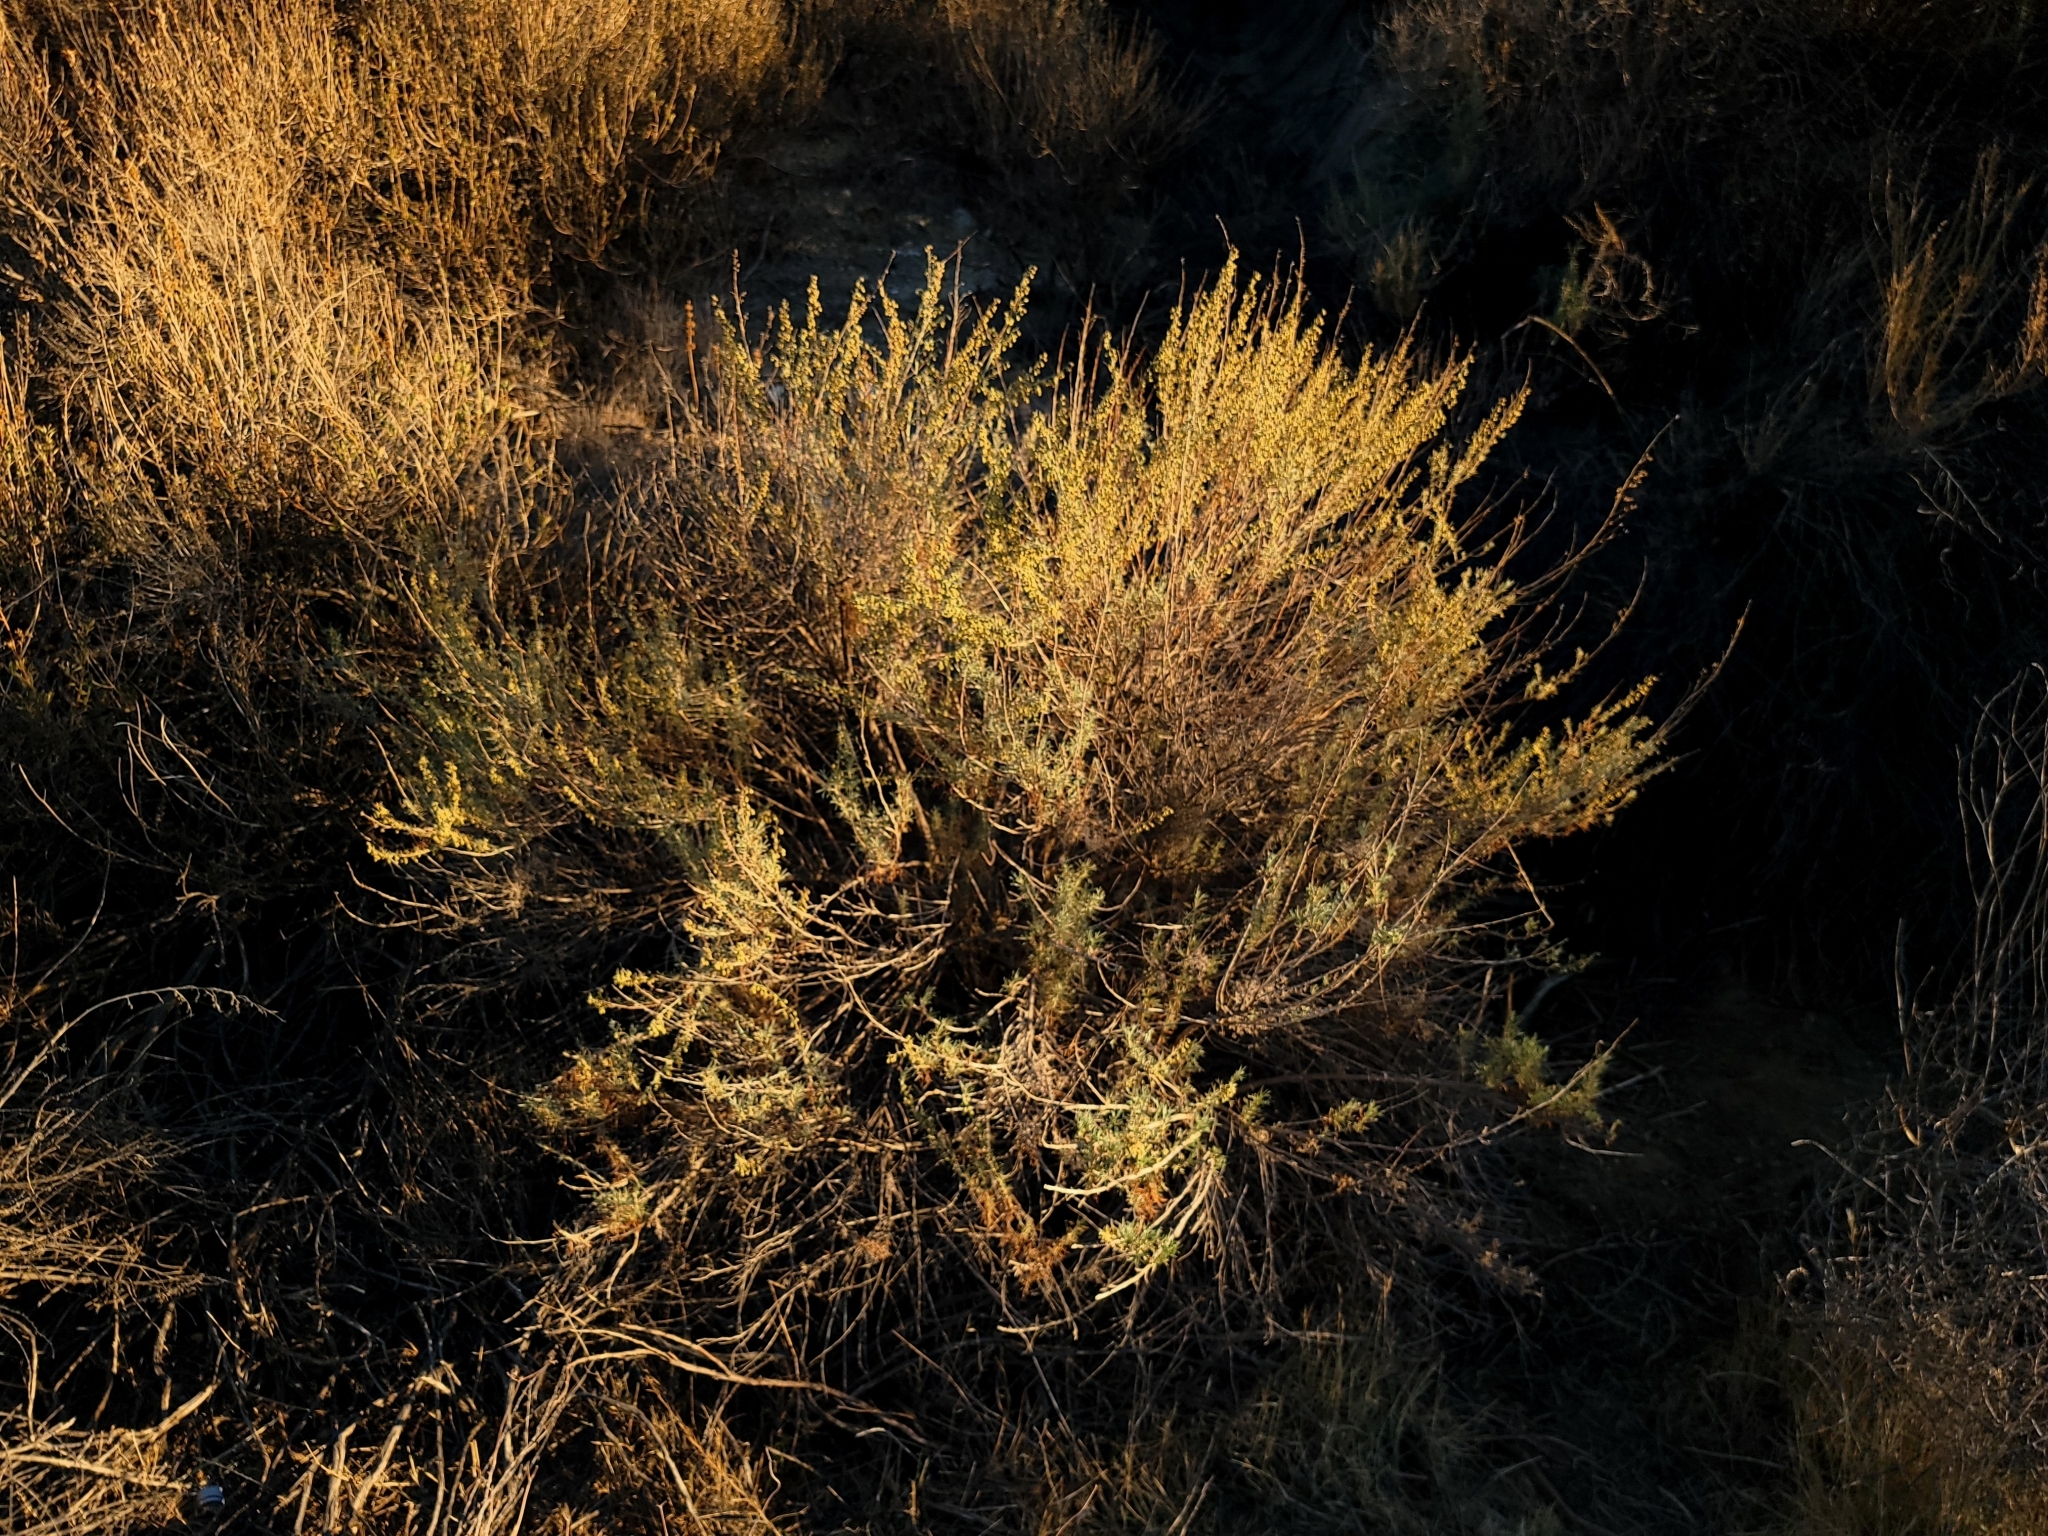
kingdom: Plantae
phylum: Tracheophyta
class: Magnoliopsida
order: Asterales
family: Asteraceae
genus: Artemisia
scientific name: Artemisia californica
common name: California sagebrush
